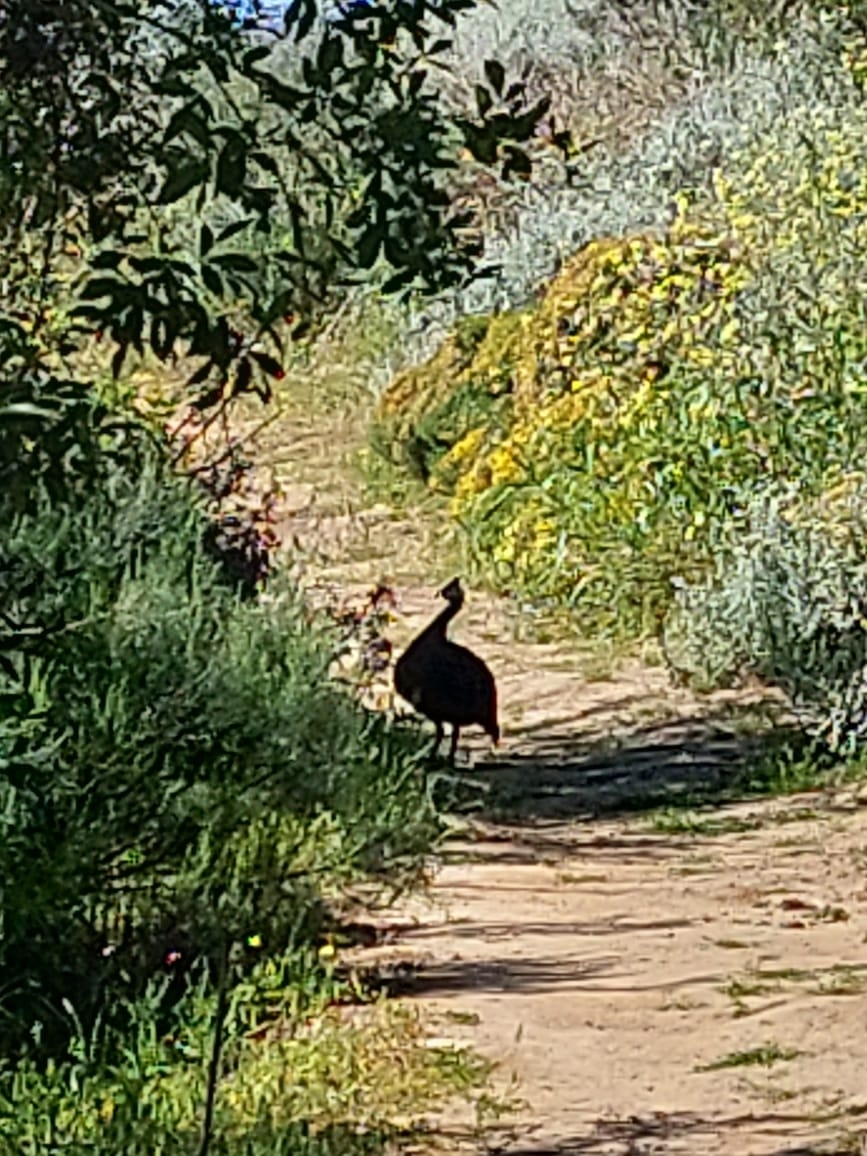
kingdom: Animalia
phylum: Chordata
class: Aves
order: Galliformes
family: Numididae
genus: Numida
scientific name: Numida meleagris
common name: Helmeted guineafowl
